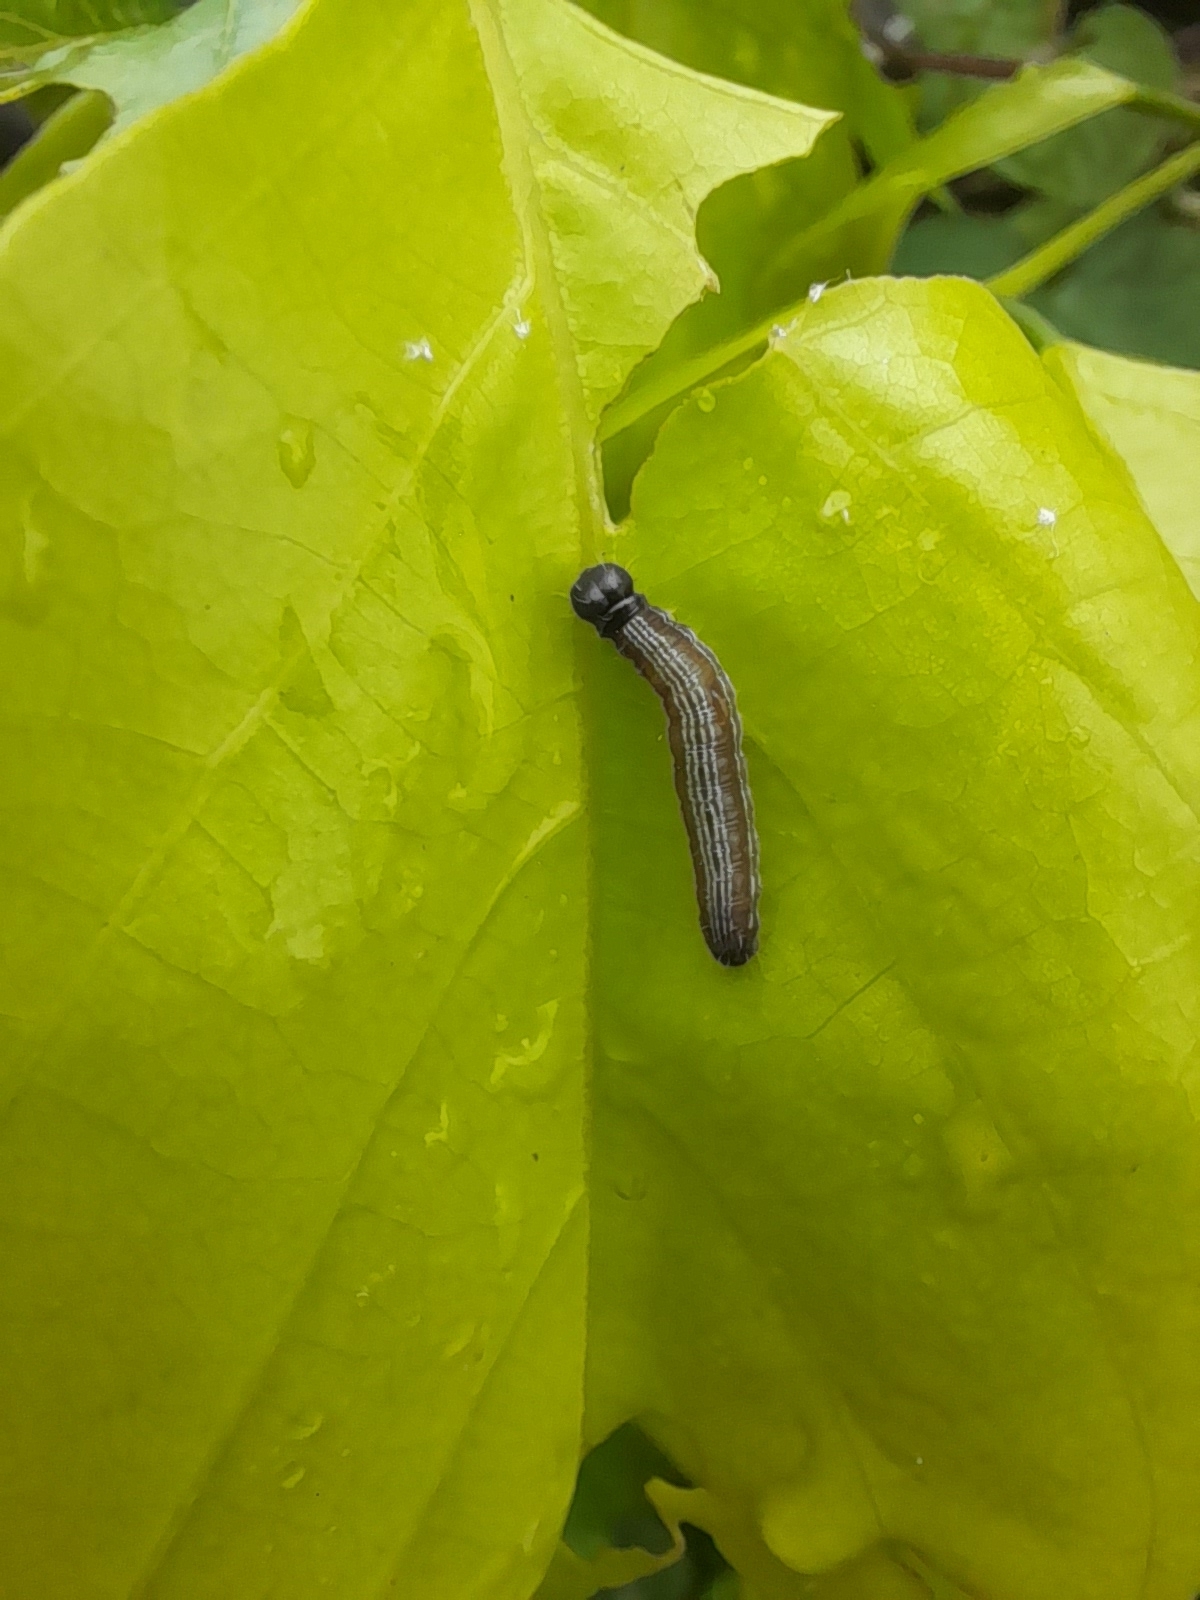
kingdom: Animalia
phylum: Arthropoda
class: Insecta
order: Lepidoptera
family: Hesperiidae
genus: Hasora
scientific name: Hasora chromus
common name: Common banded awl
